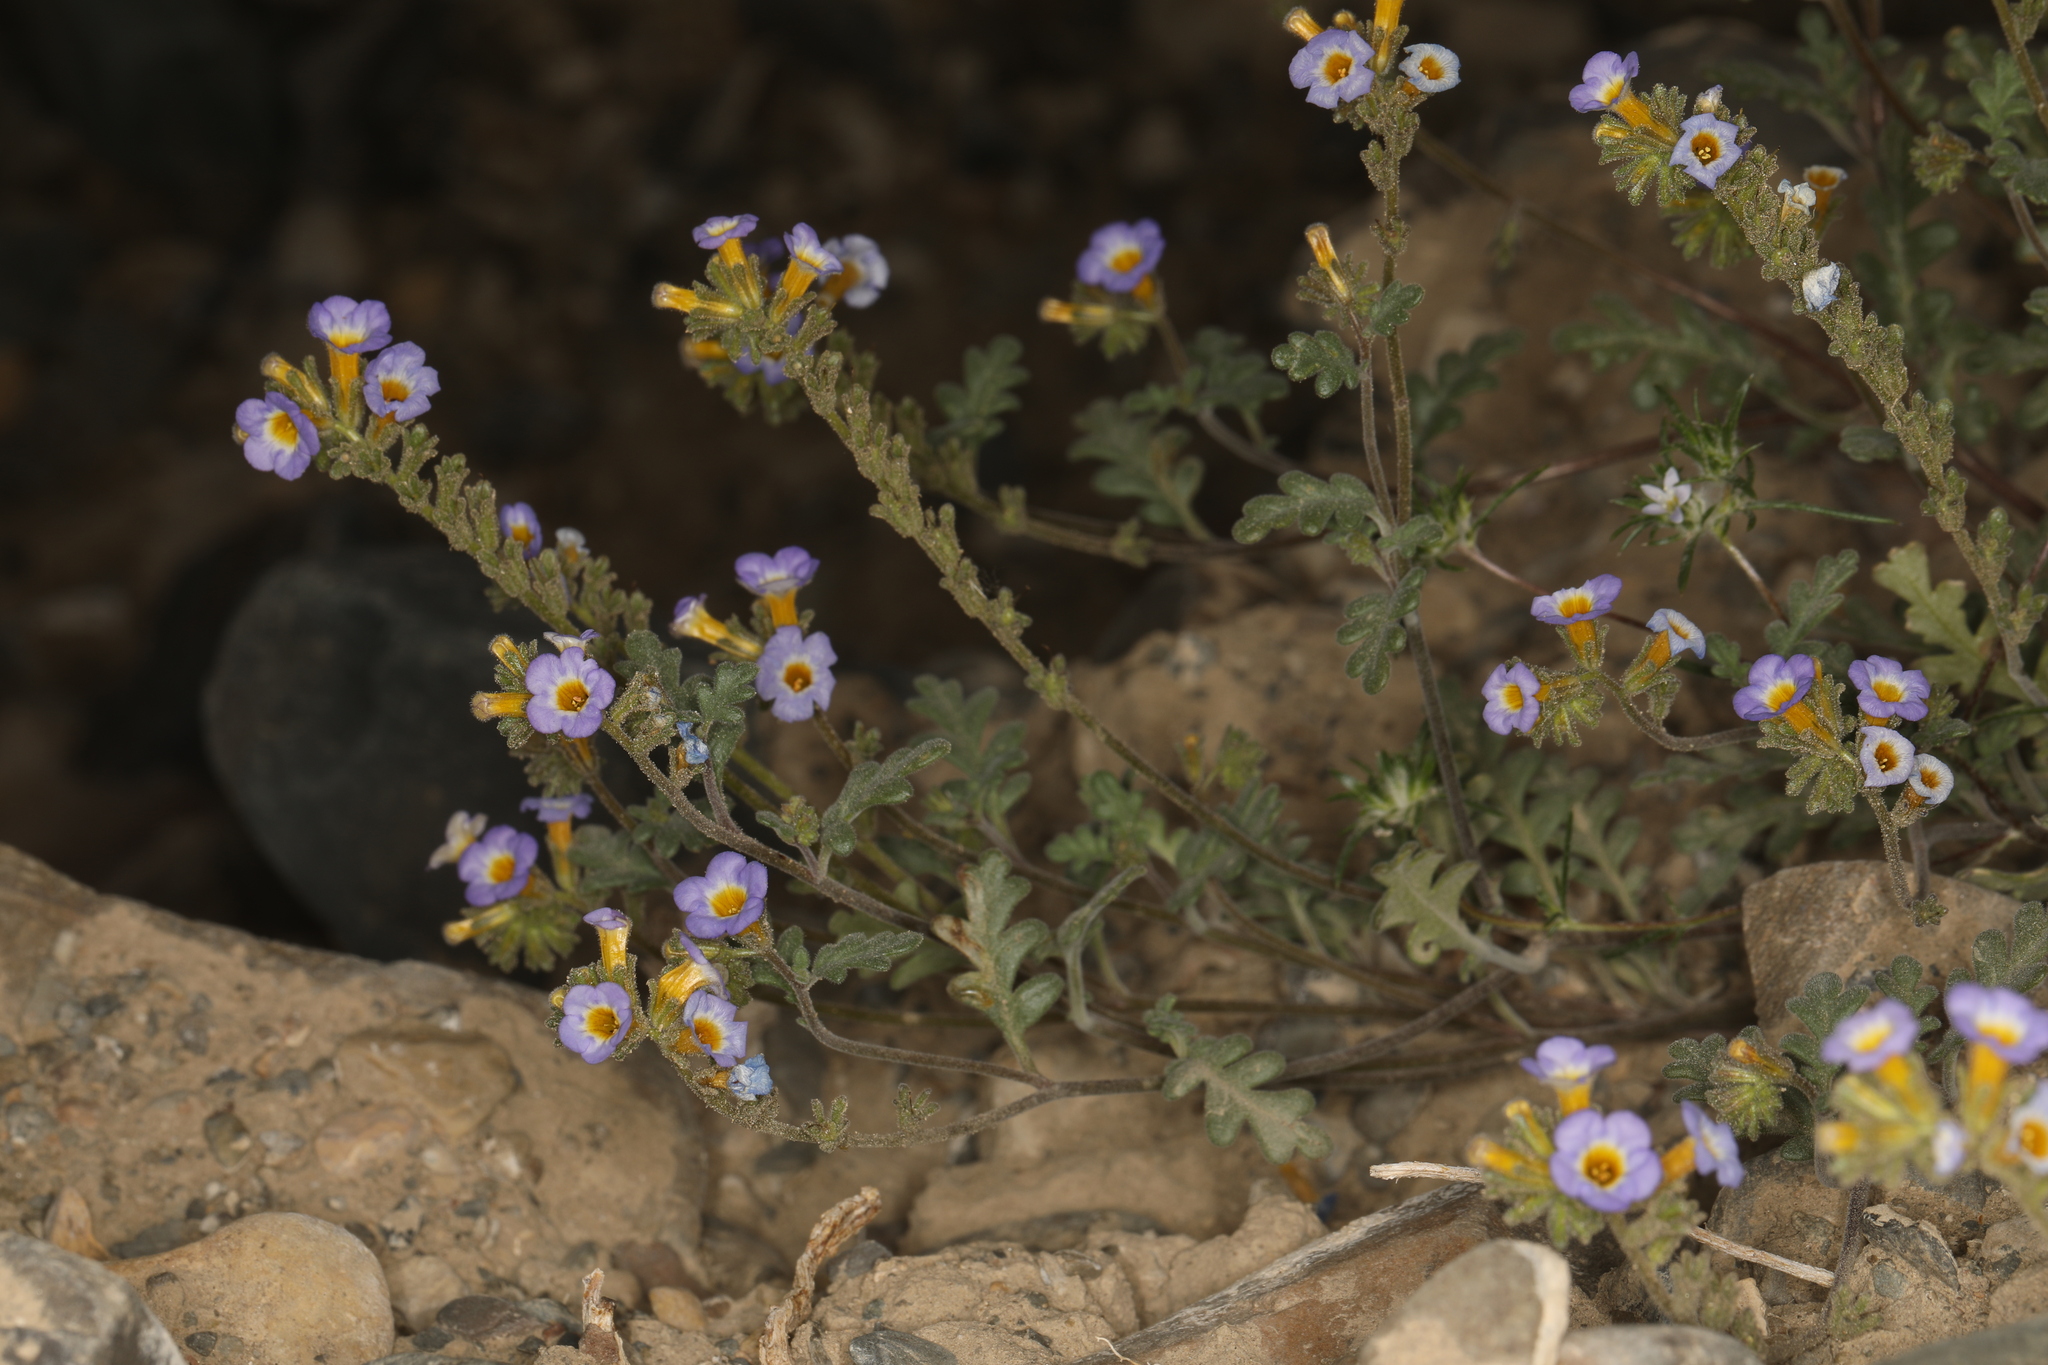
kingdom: Plantae
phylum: Tracheophyta
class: Magnoliopsida
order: Boraginales
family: Hydrophyllaceae
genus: Phacelia
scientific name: Phacelia fremontii
